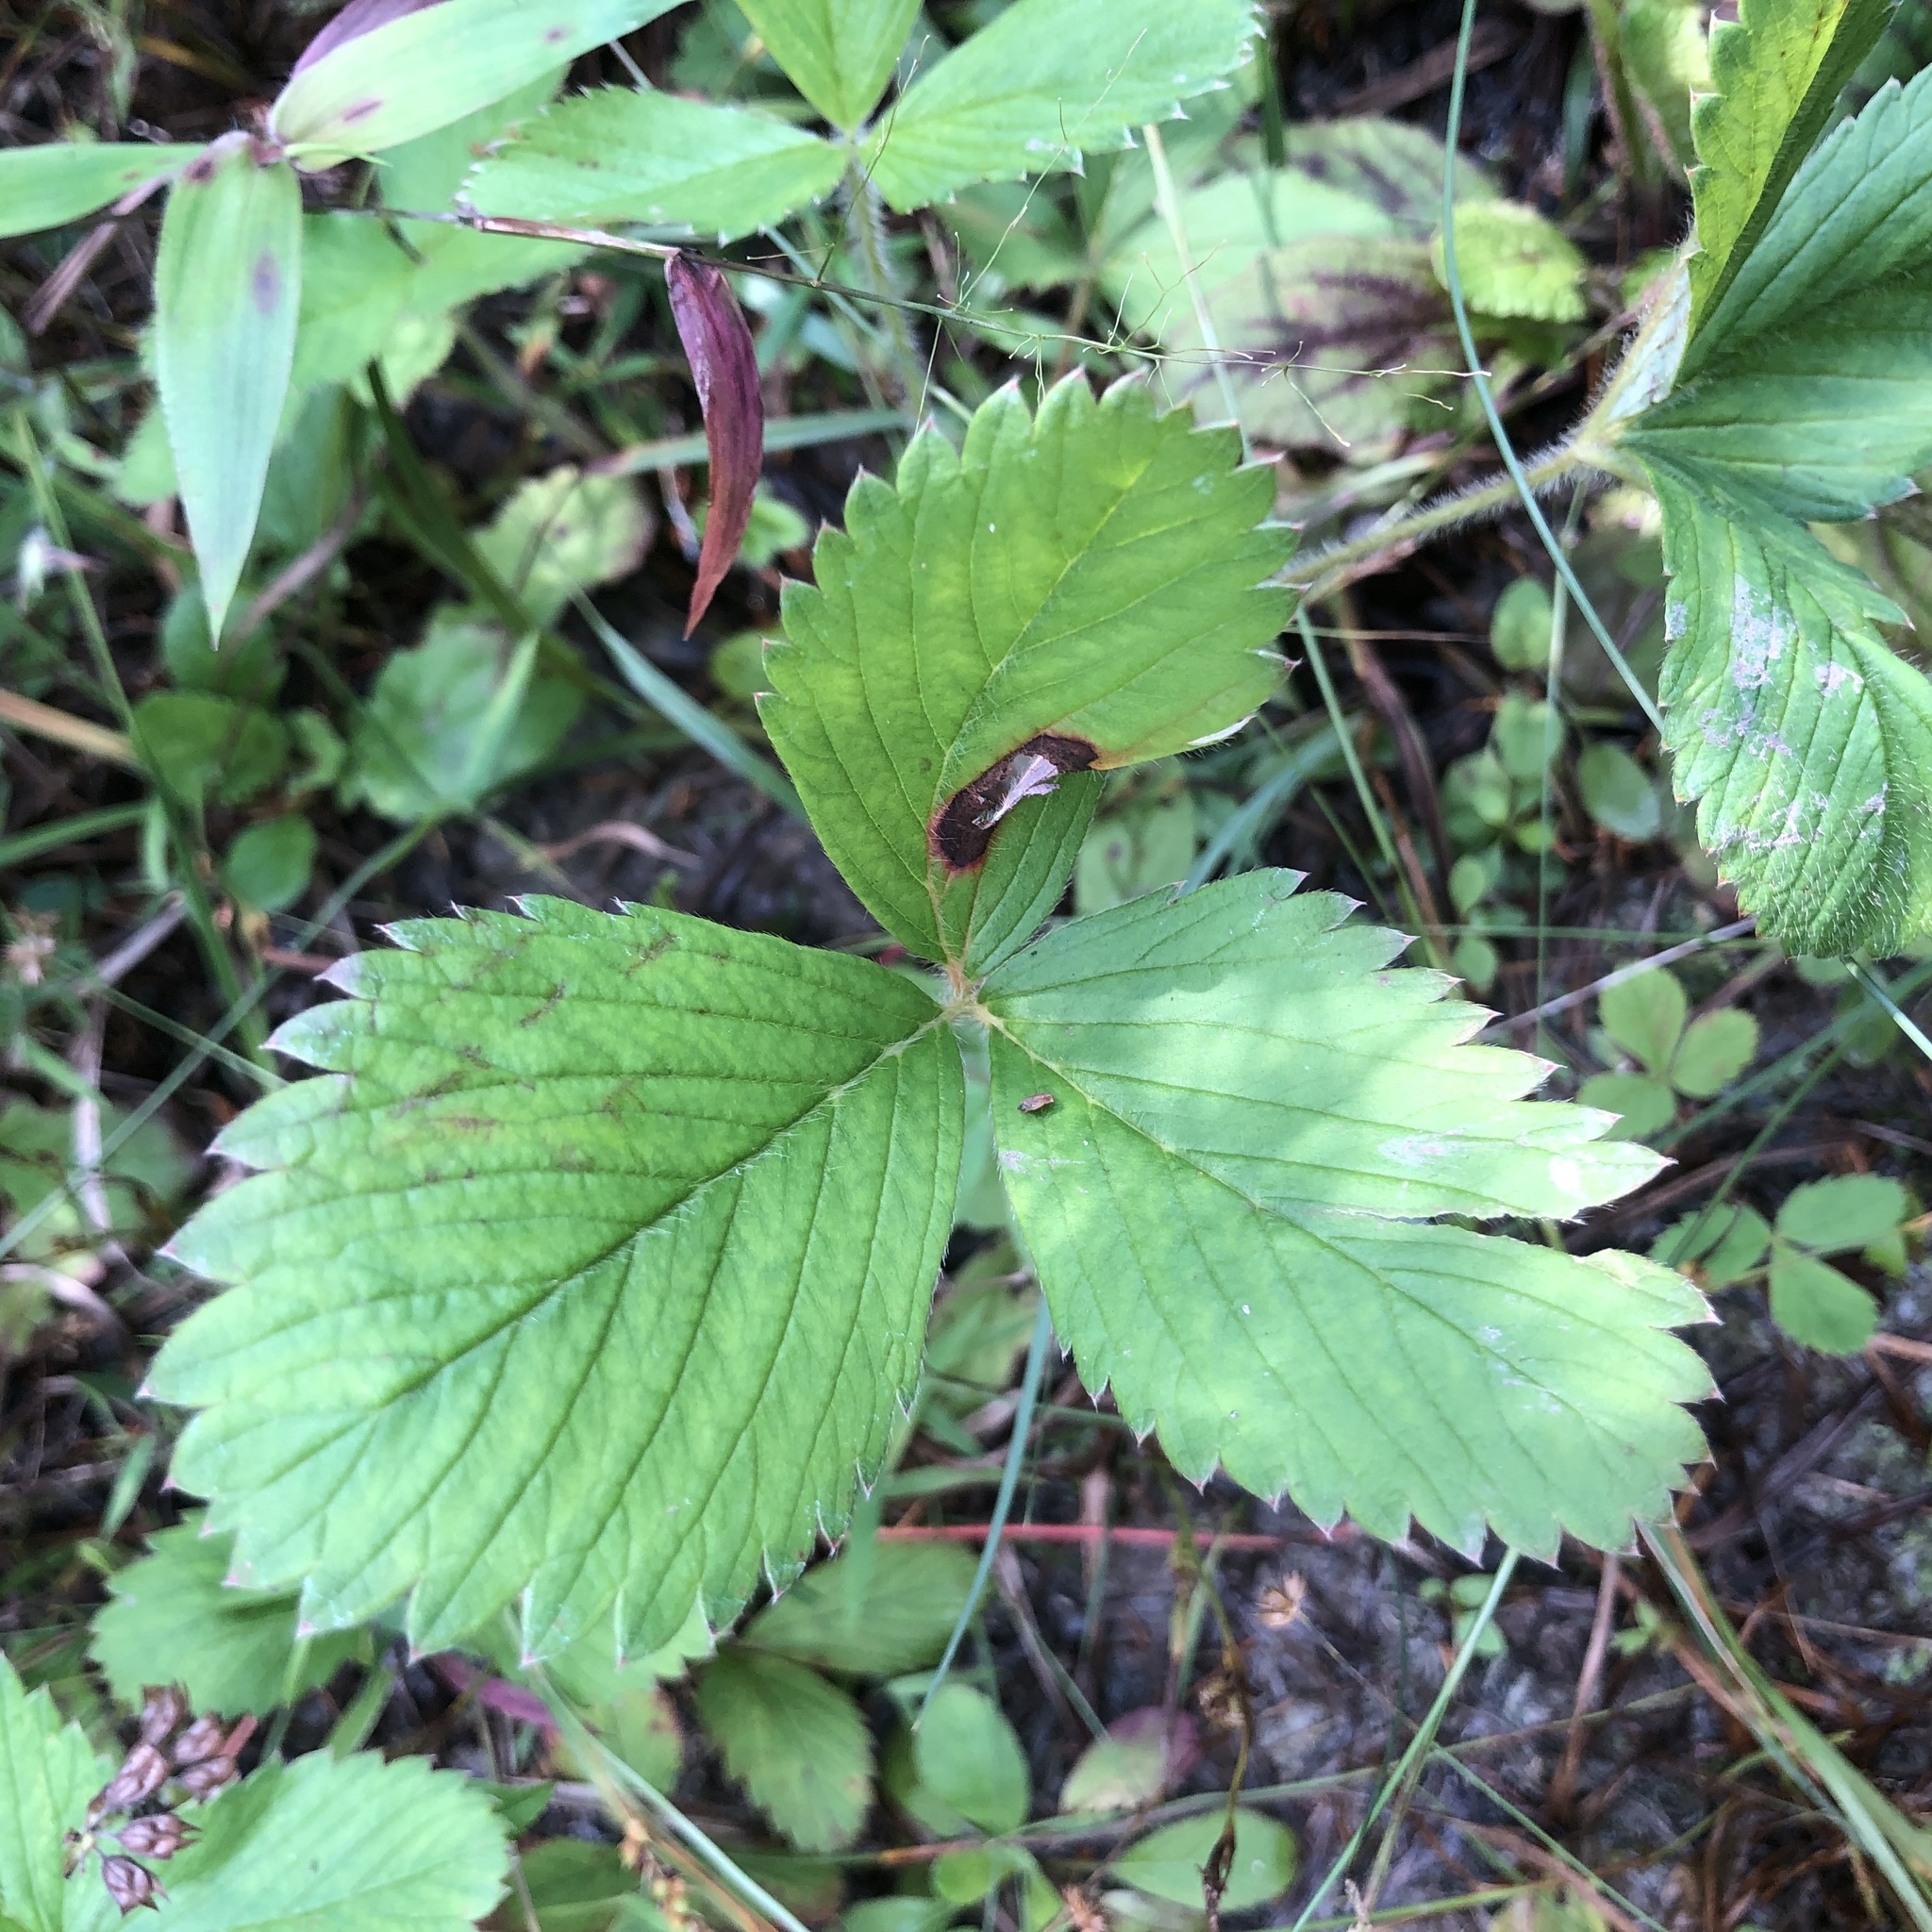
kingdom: Plantae
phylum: Tracheophyta
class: Magnoliopsida
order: Rosales
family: Rosaceae
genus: Fragaria
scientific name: Fragaria virginiana
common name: Thickleaved wild strawberry
